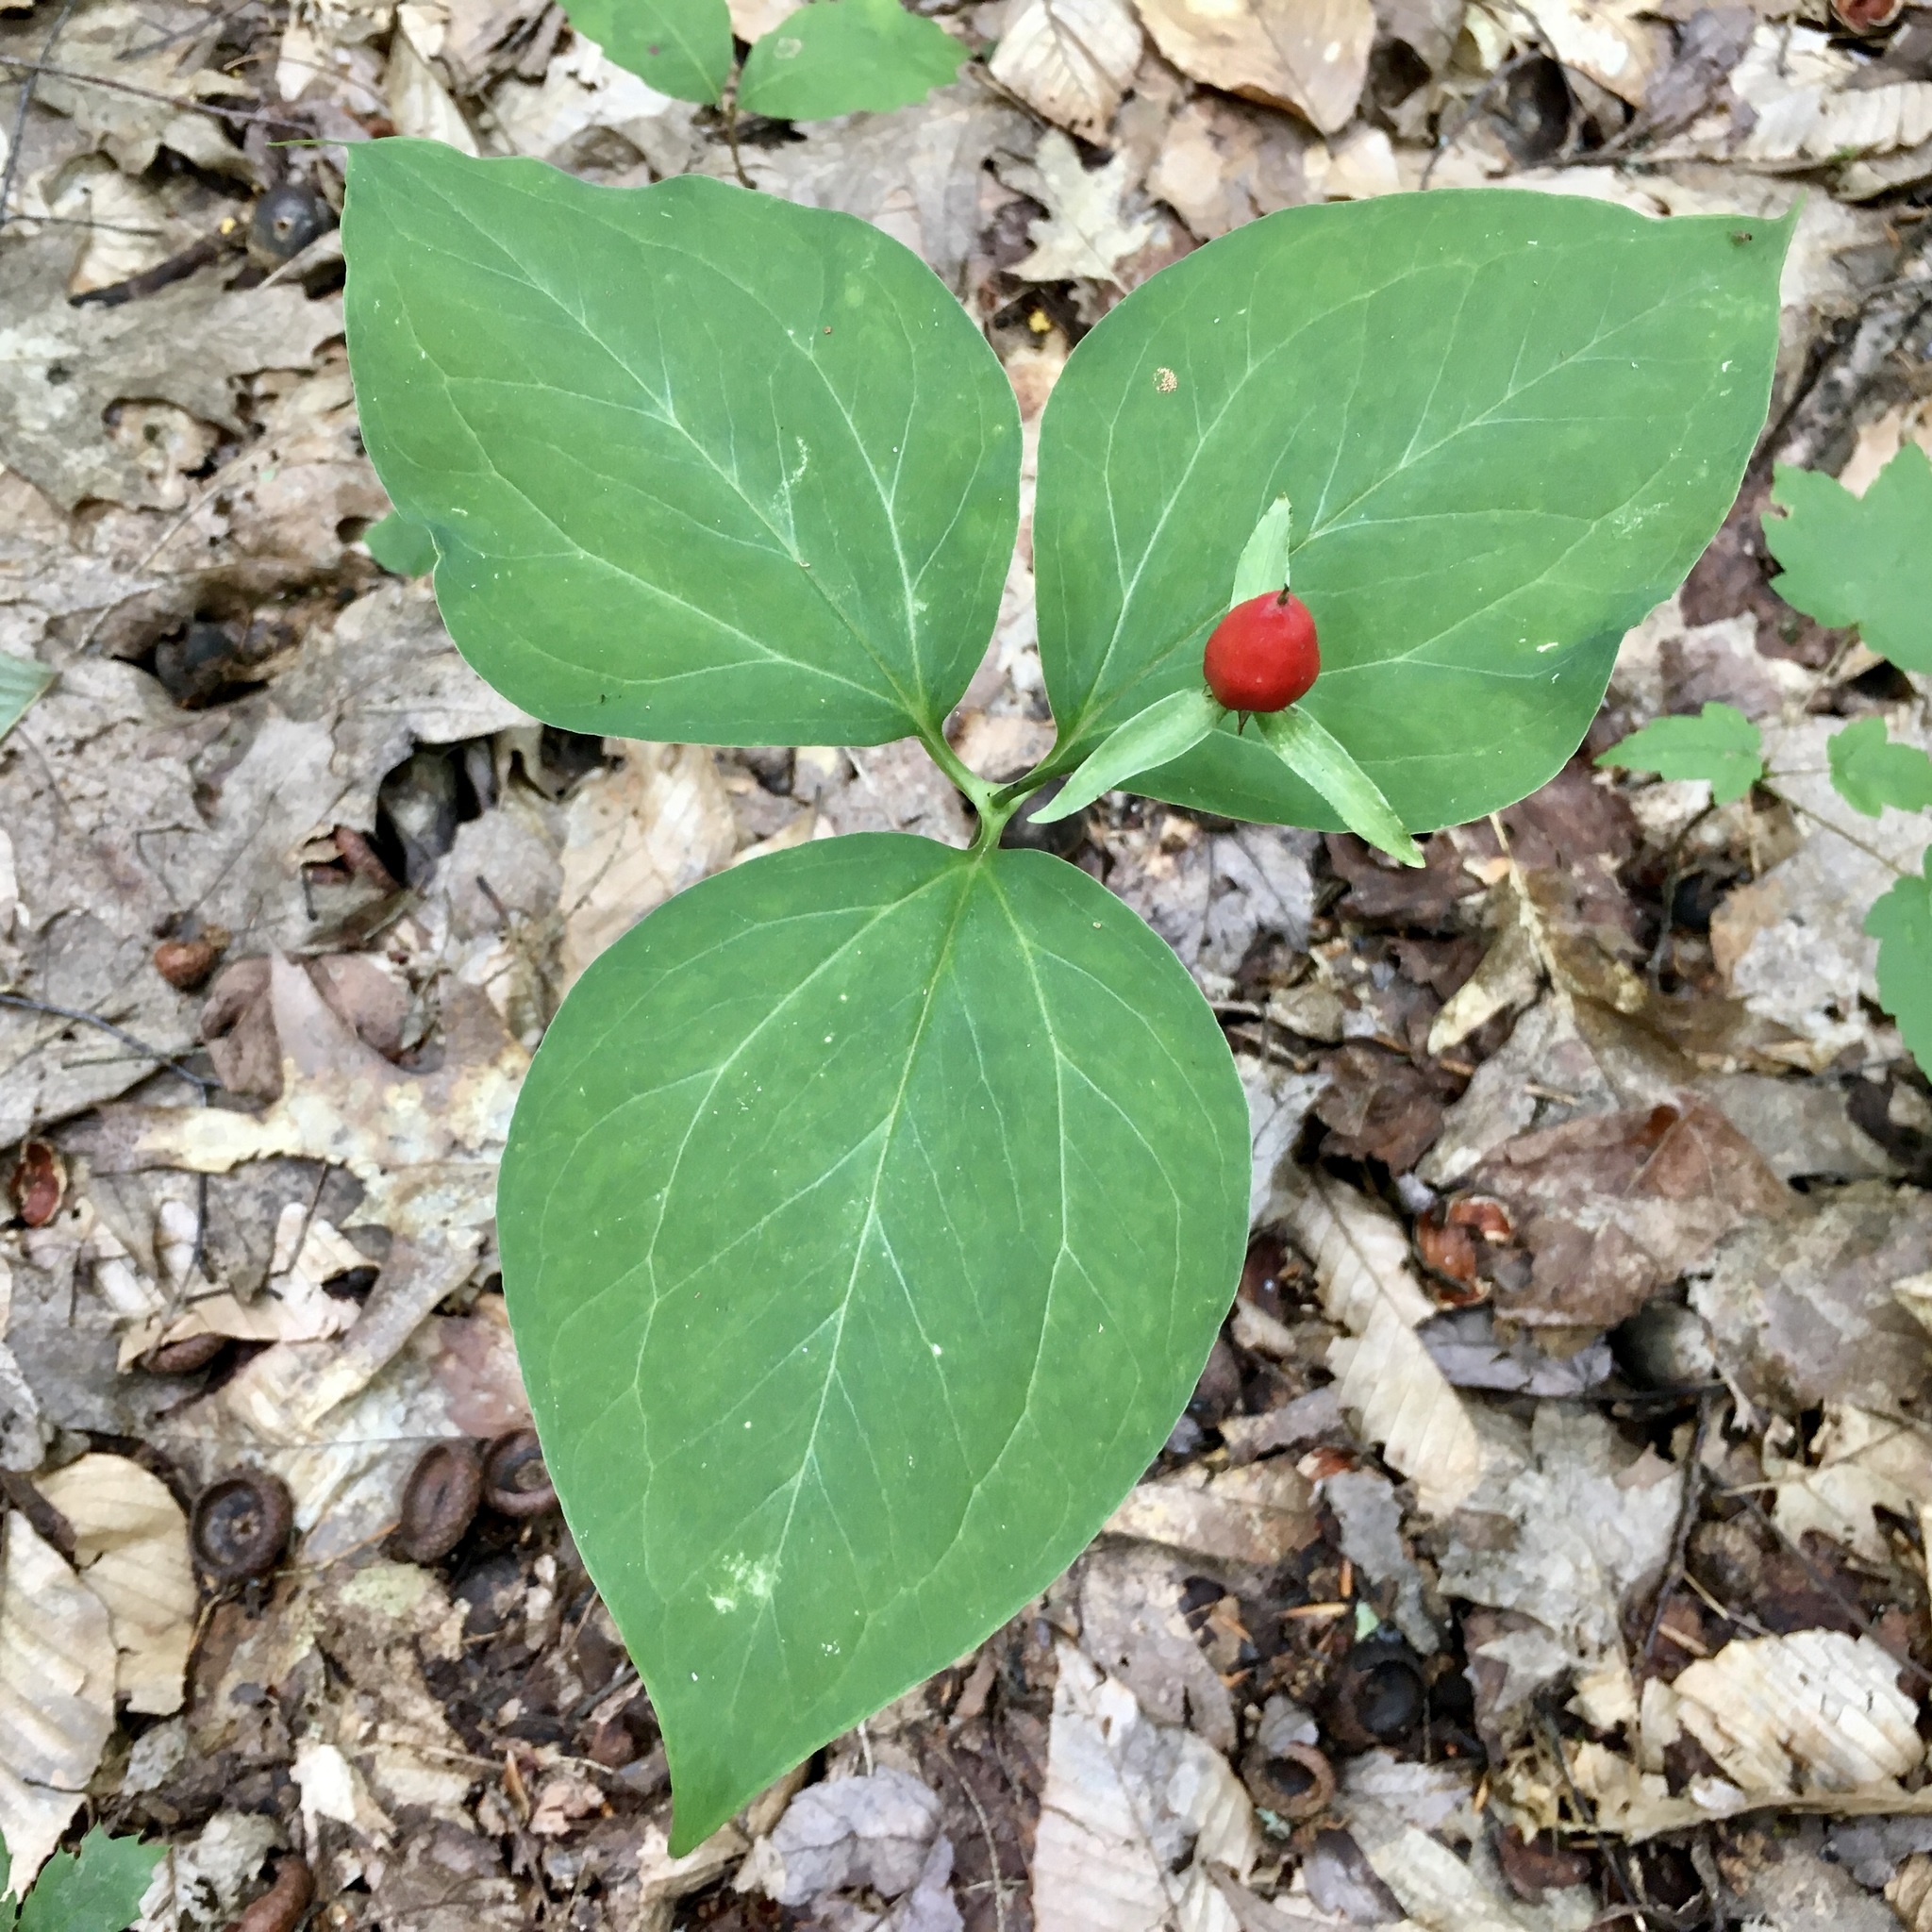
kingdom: Plantae
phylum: Tracheophyta
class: Liliopsida
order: Liliales
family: Melanthiaceae
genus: Trillium
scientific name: Trillium undulatum
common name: Paint trillium
